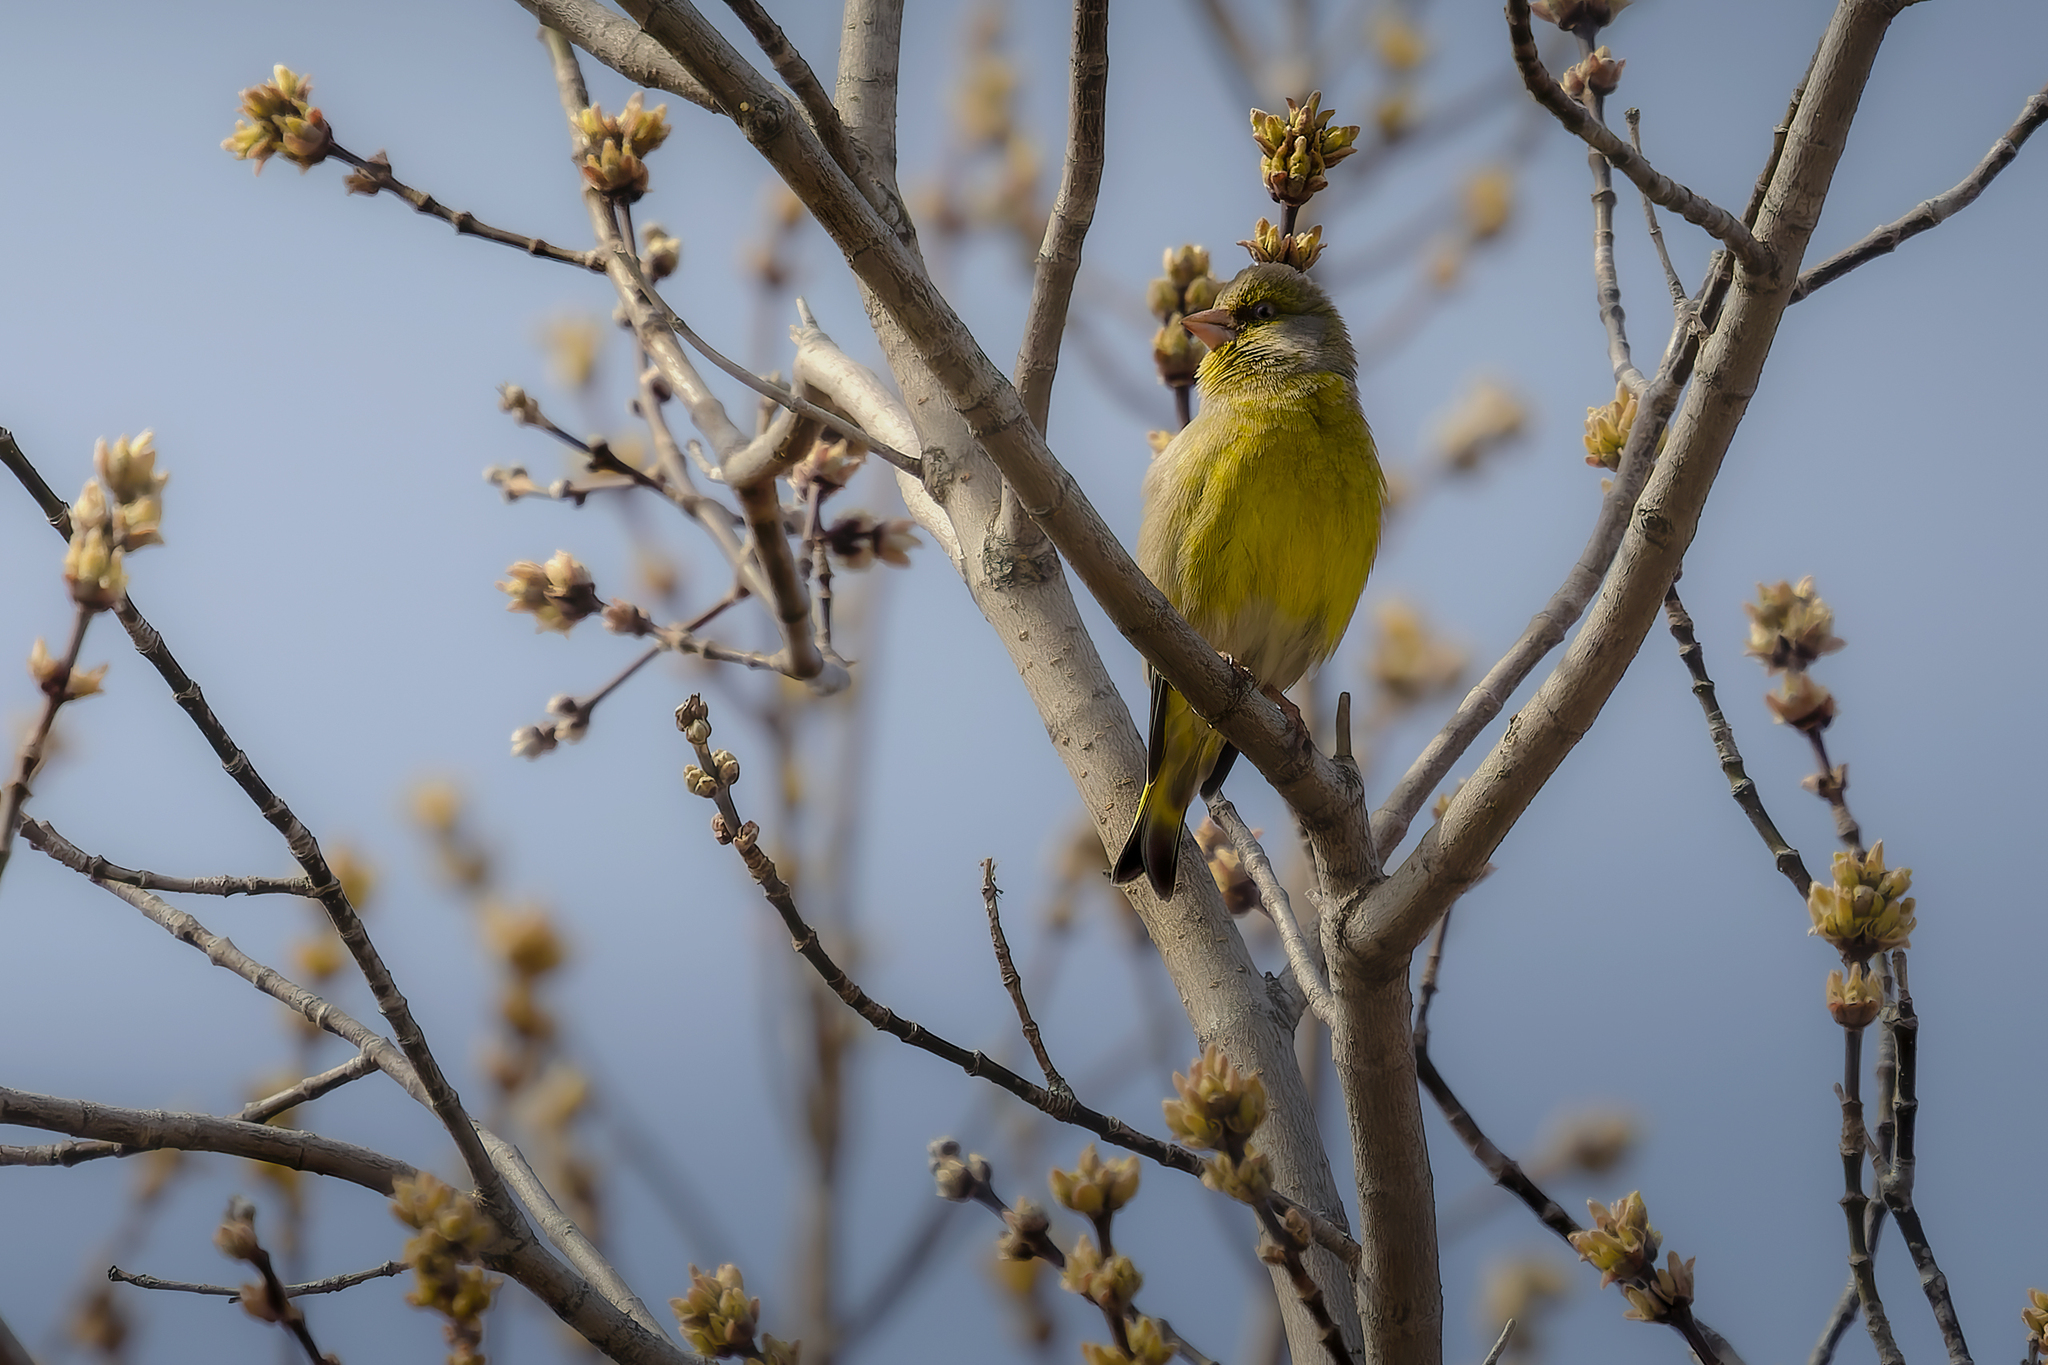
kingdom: Plantae
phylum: Tracheophyta
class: Liliopsida
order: Poales
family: Poaceae
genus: Chloris
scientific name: Chloris chloris
